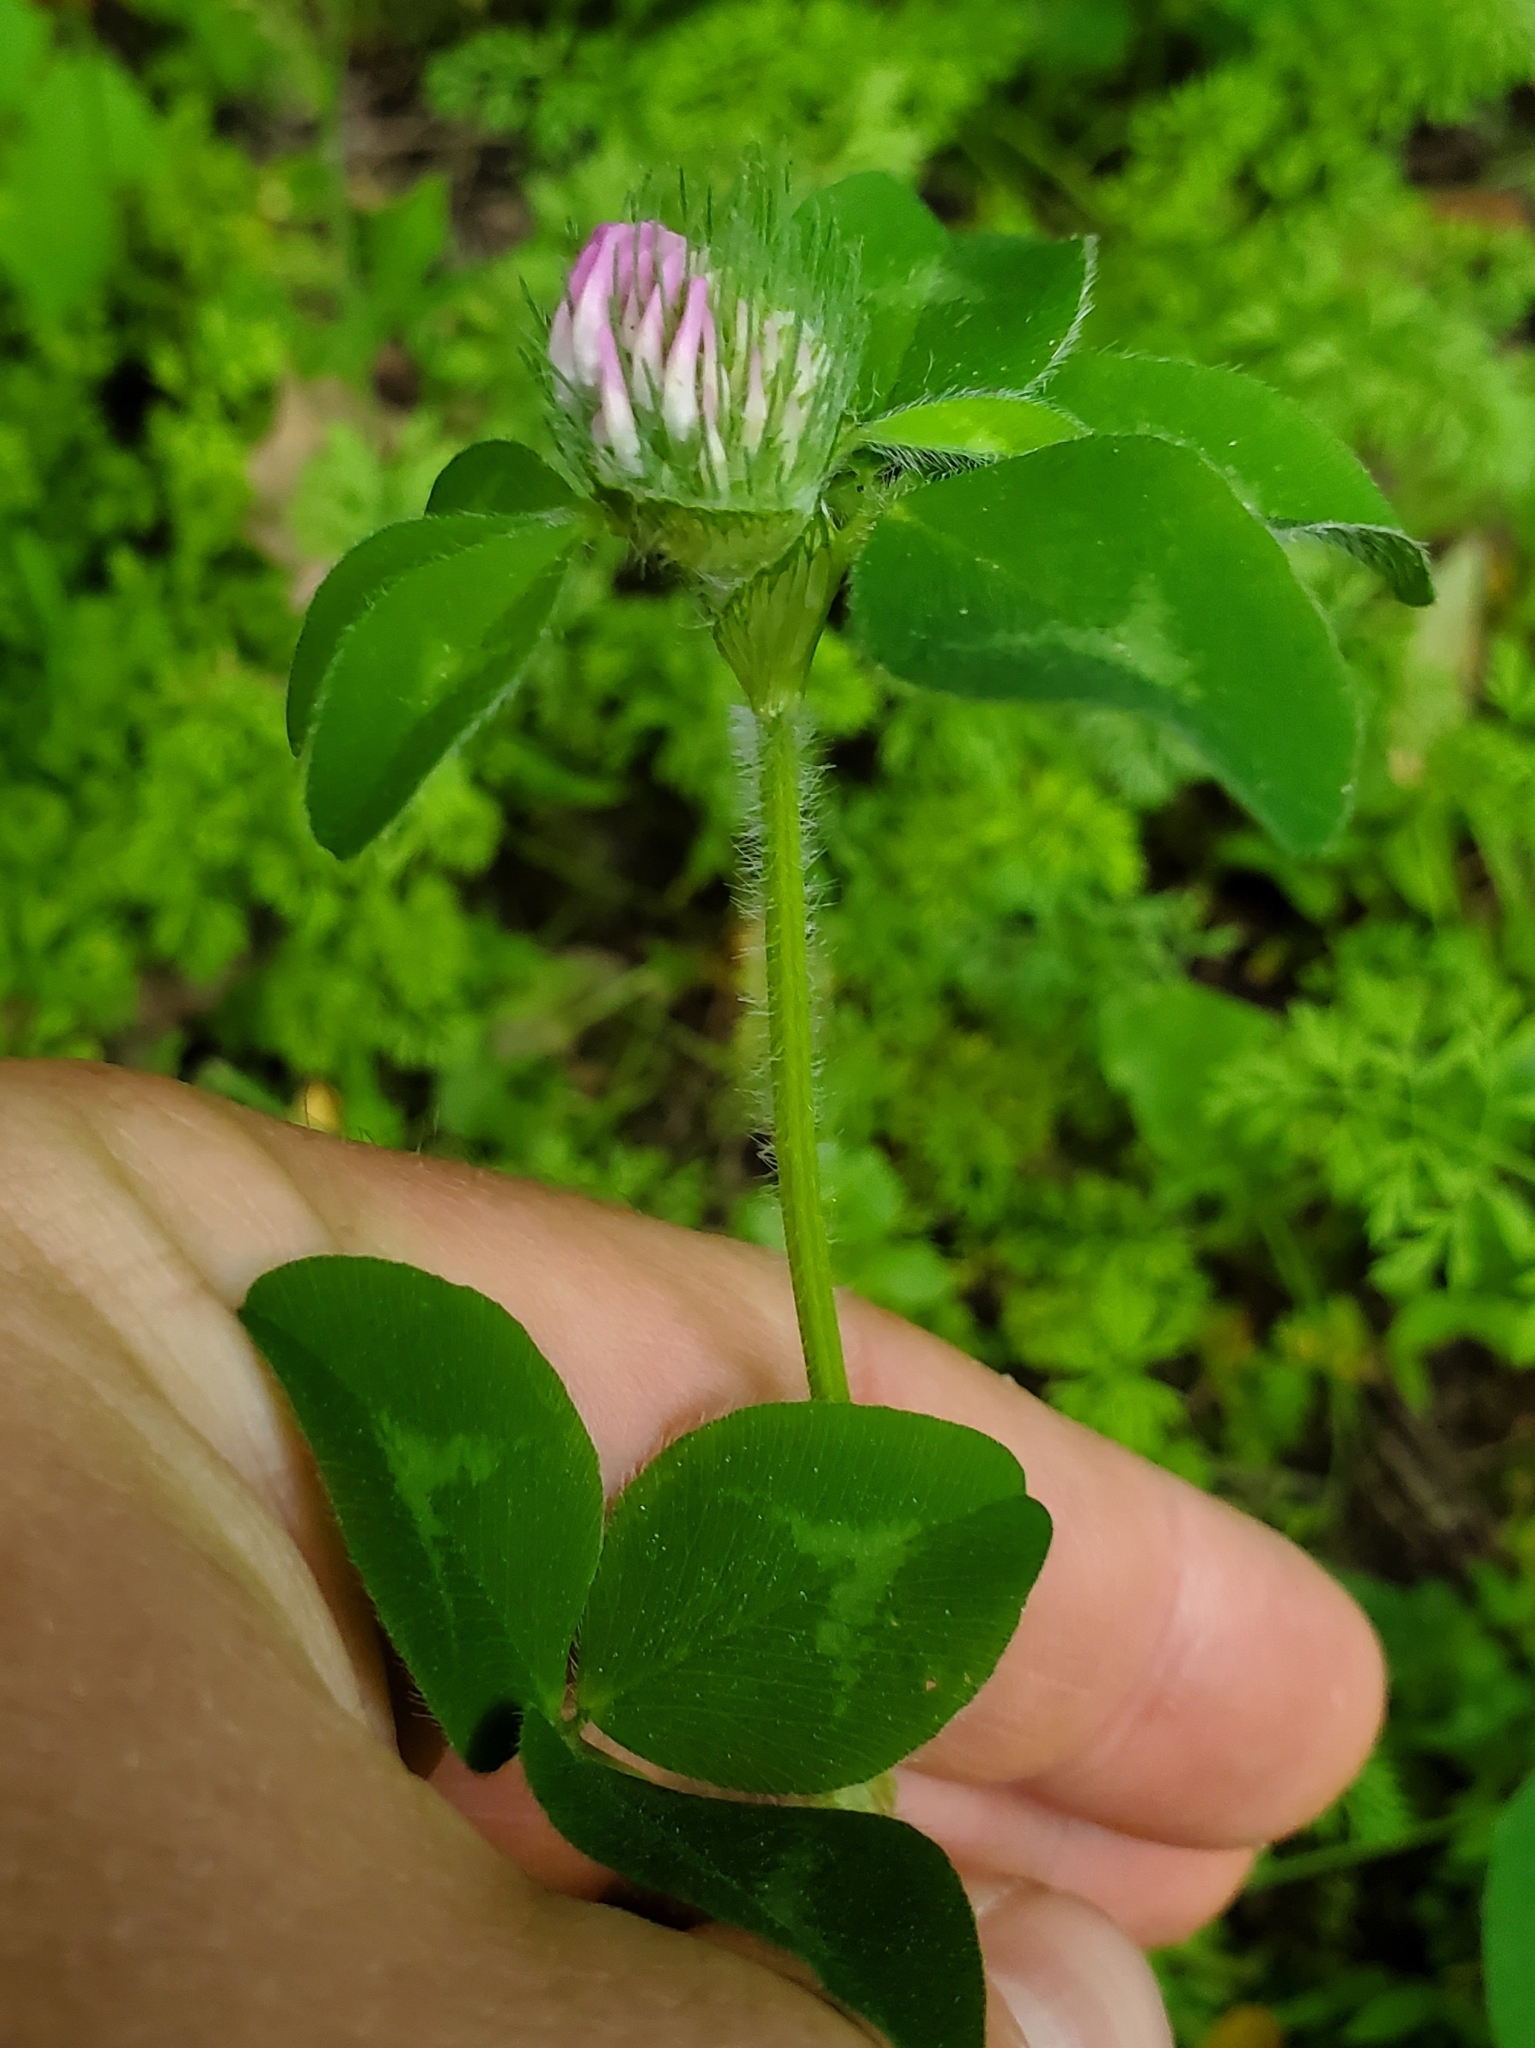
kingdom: Plantae
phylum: Tracheophyta
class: Magnoliopsida
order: Fabales
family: Fabaceae
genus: Trifolium
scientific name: Trifolium pratense
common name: Red clover
